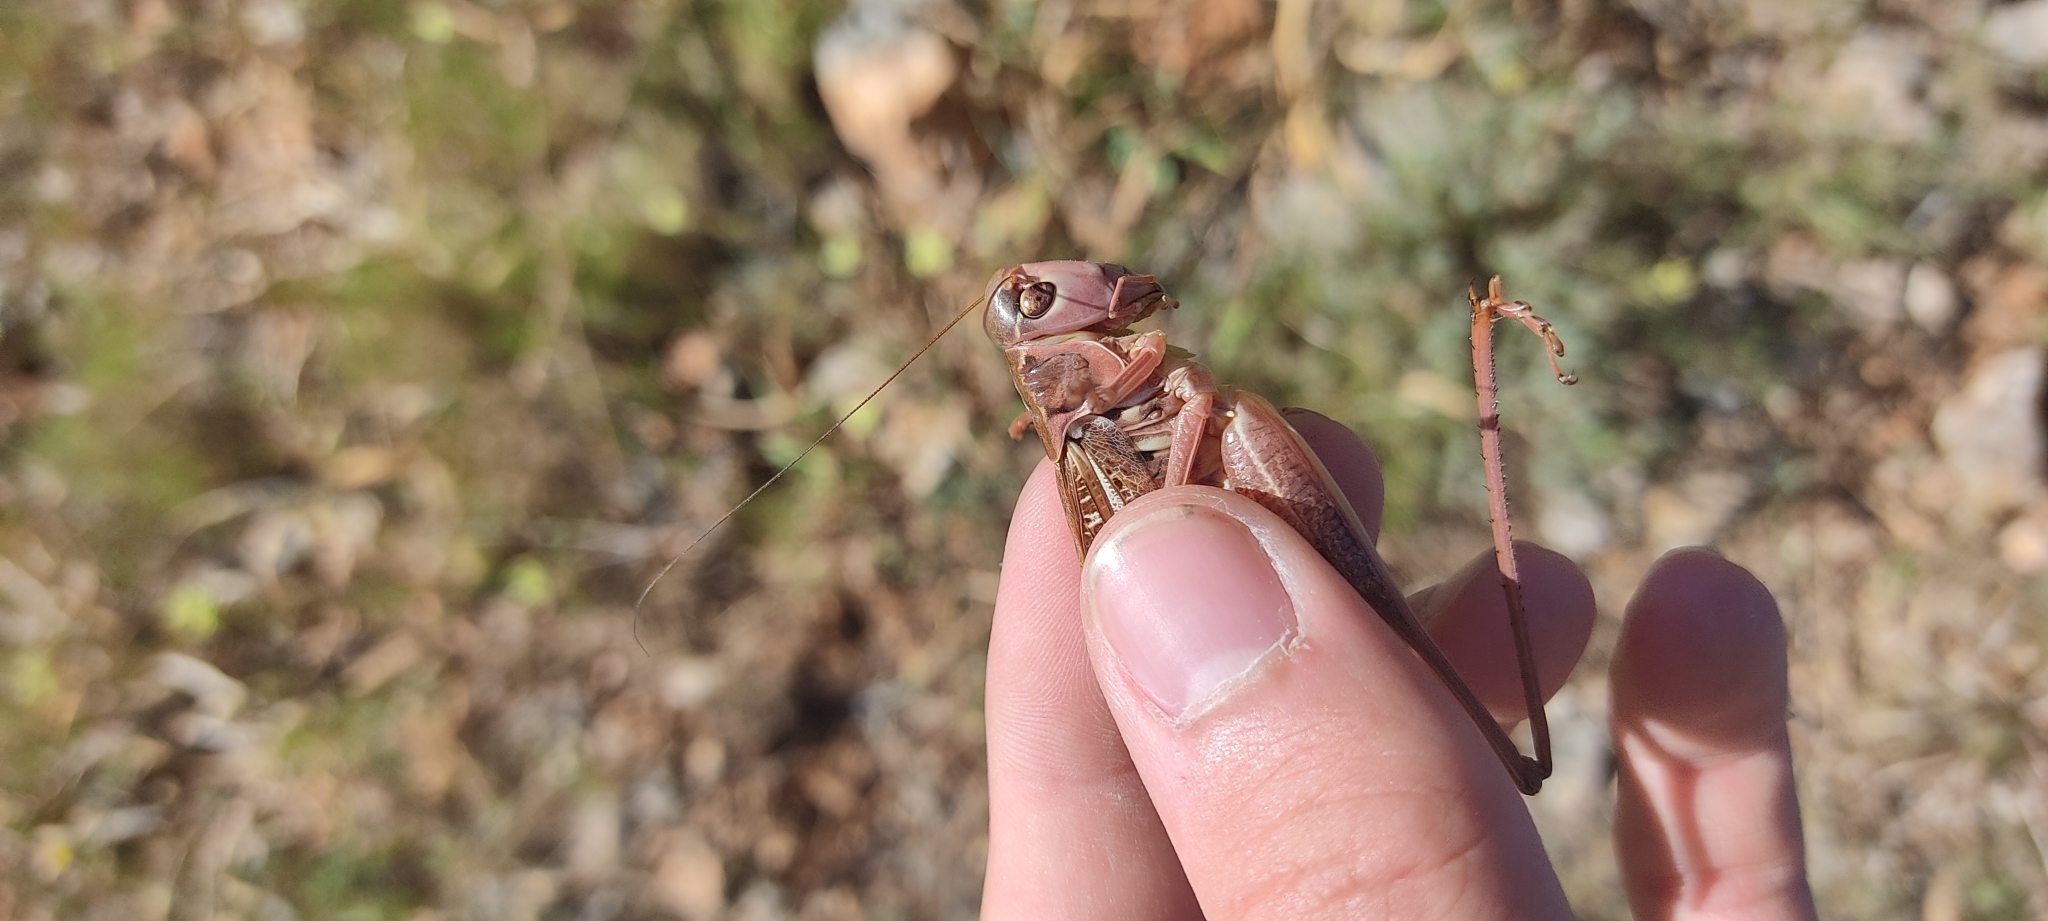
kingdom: Animalia
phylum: Arthropoda
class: Insecta
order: Orthoptera
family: Tettigoniidae
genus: Decticus
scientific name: Decticus albifrons
